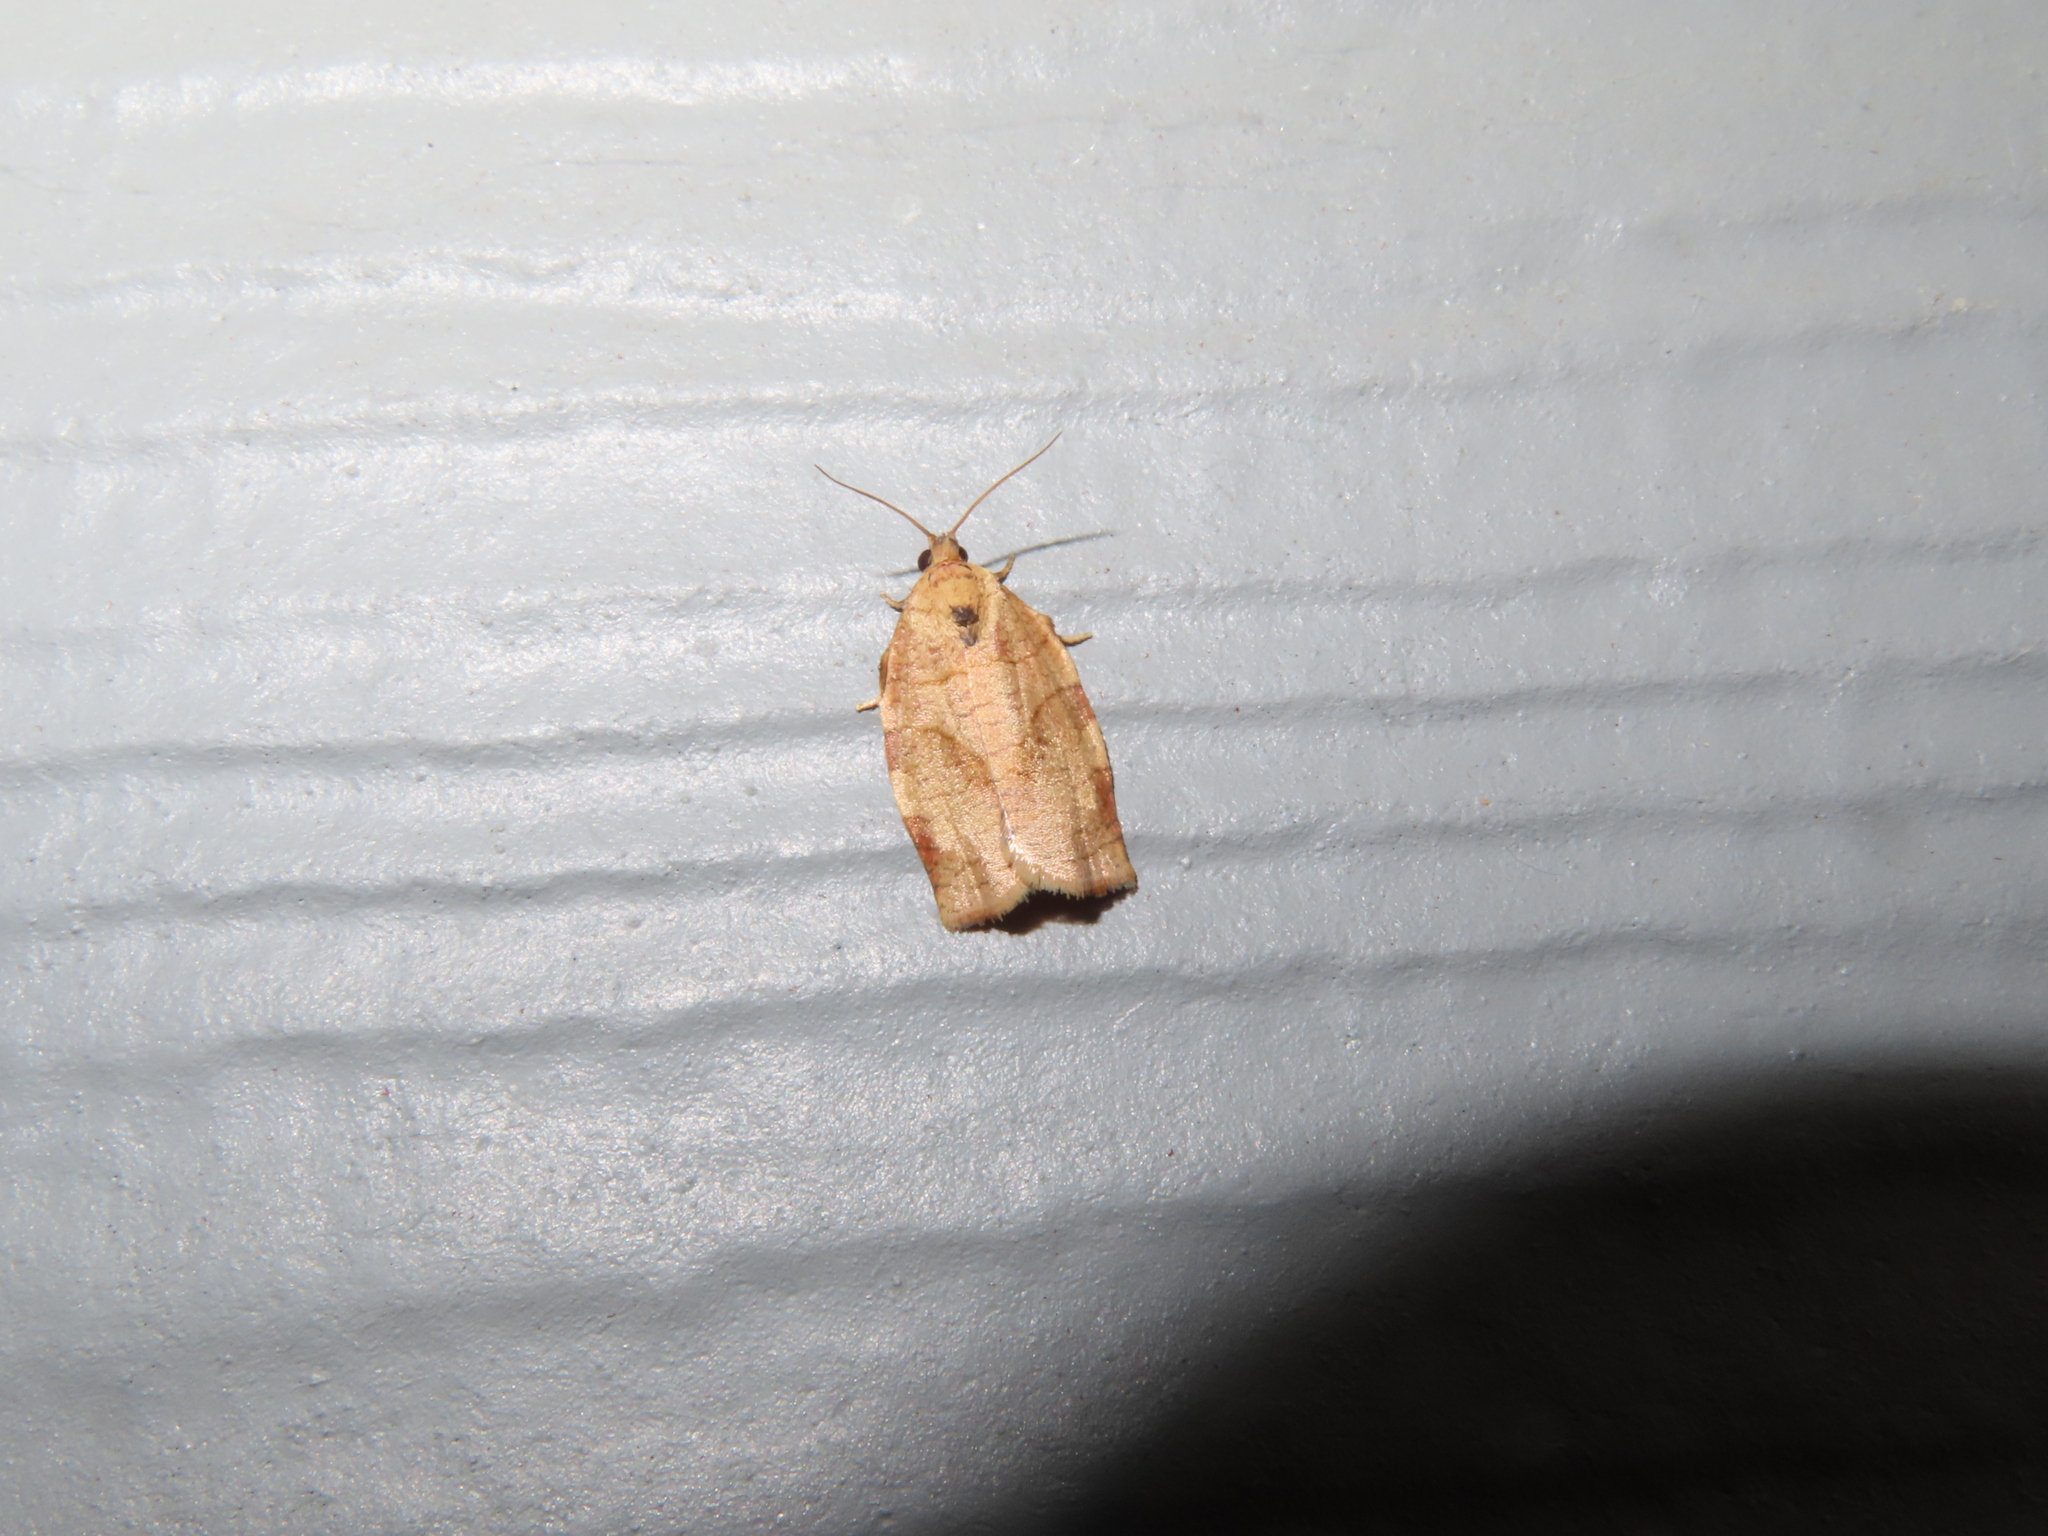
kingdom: Animalia
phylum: Arthropoda
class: Insecta
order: Lepidoptera
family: Tortricidae
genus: Choristoneura
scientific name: Choristoneura rosaceana
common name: Oblique-banded leafroller moth
